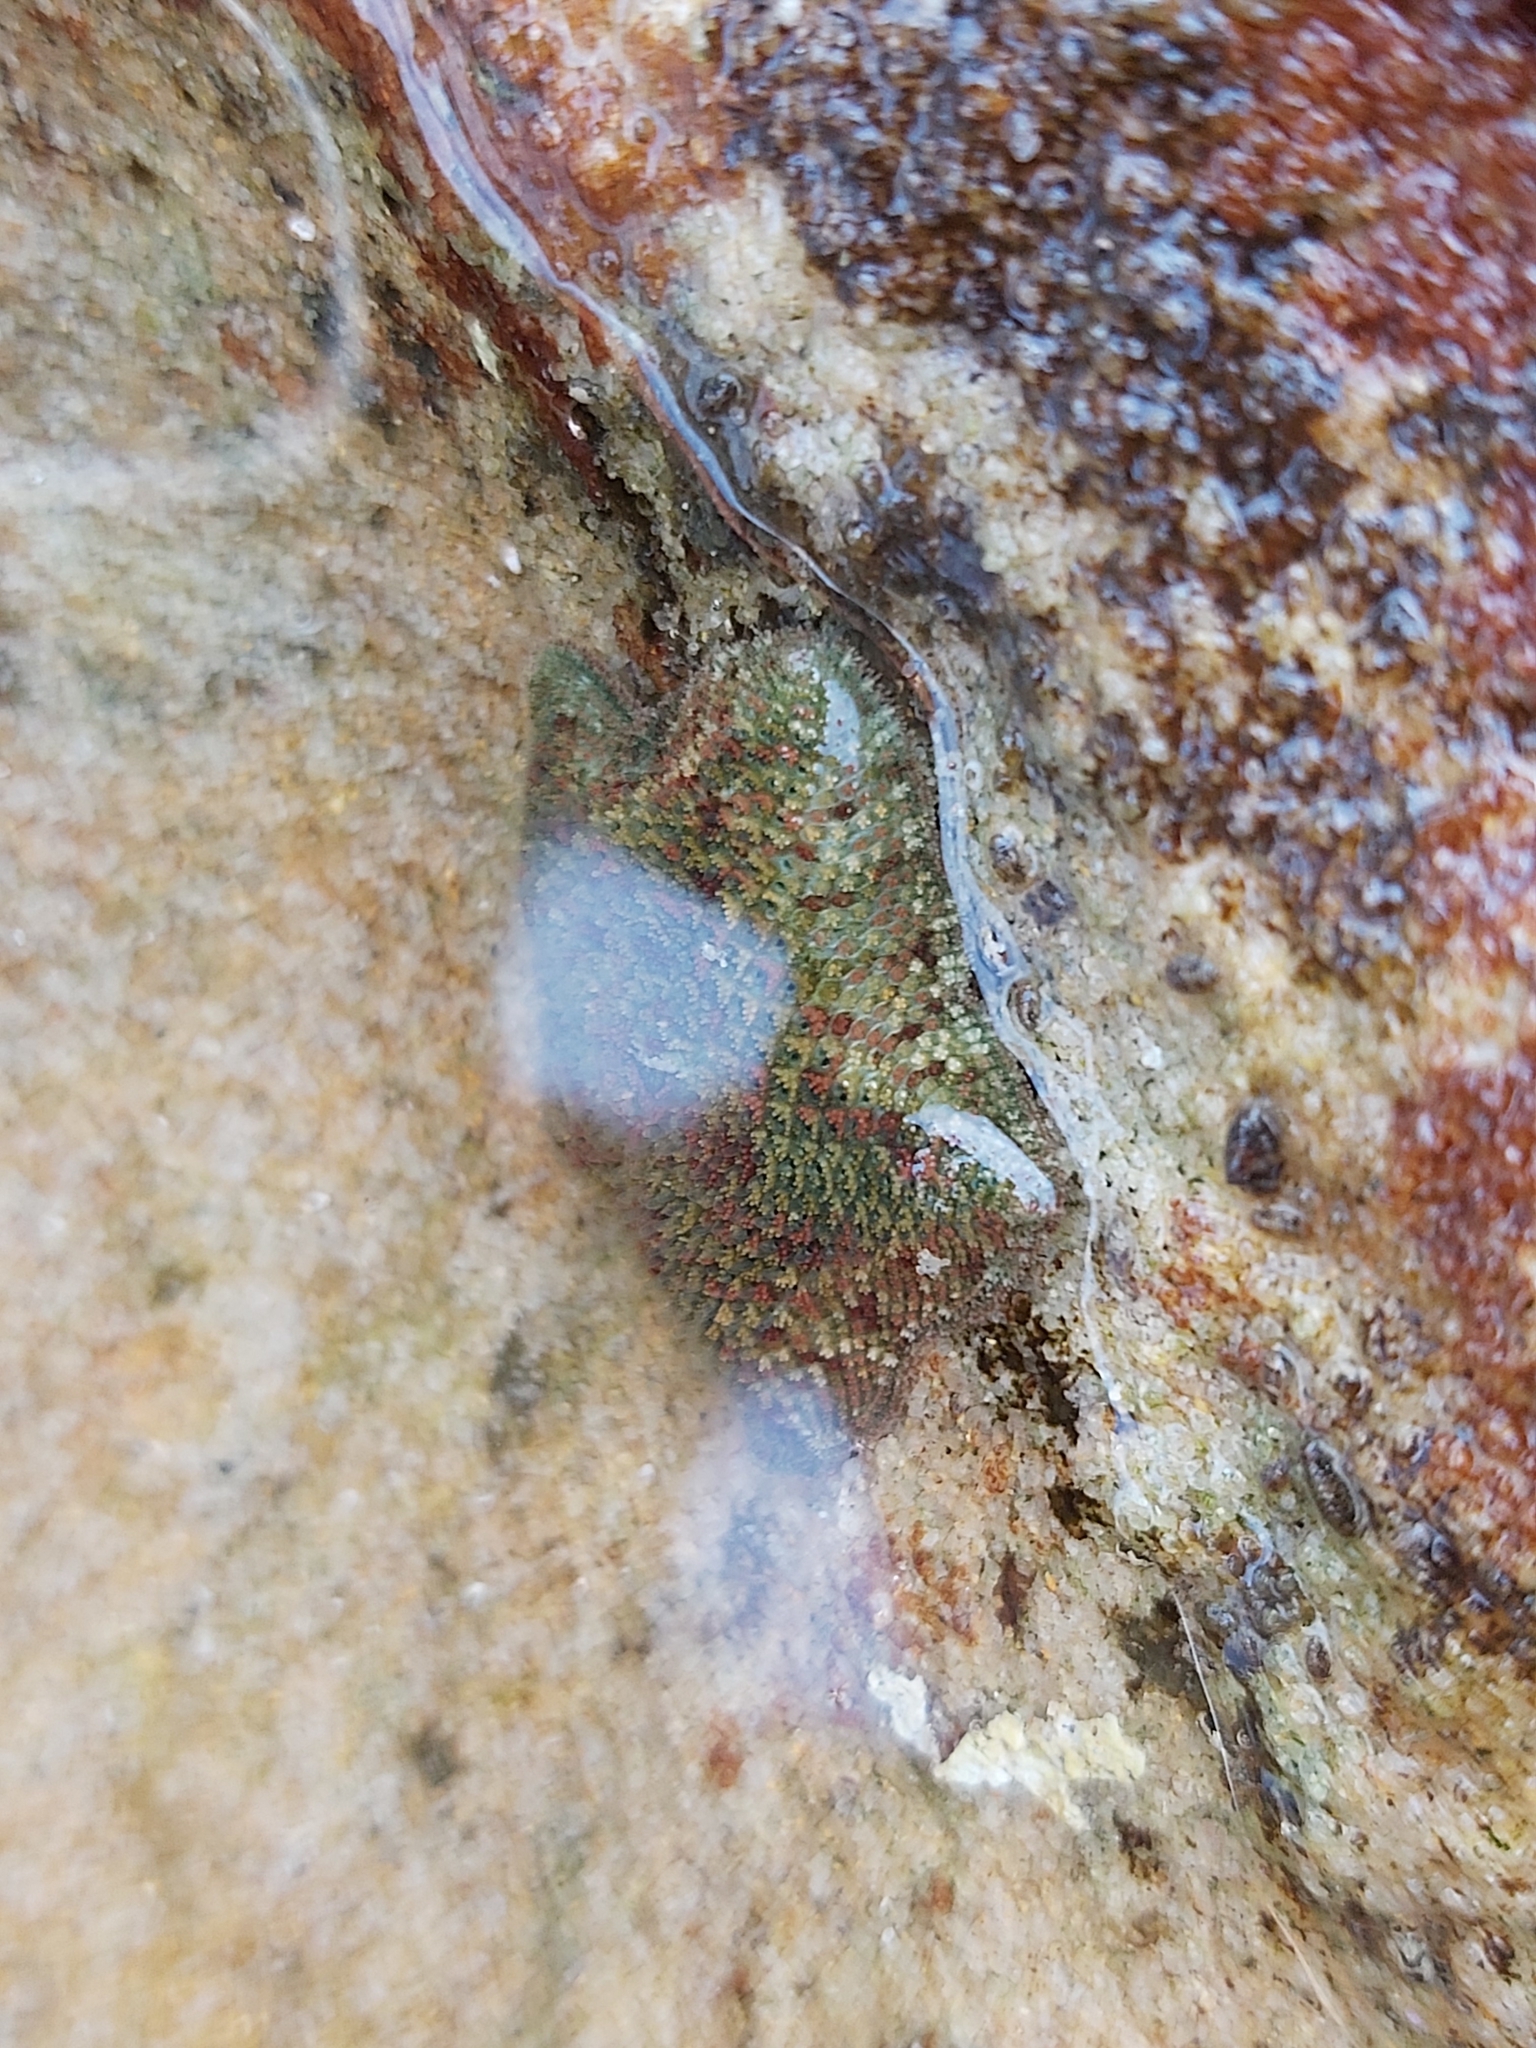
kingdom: Animalia
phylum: Echinodermata
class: Asteroidea
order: Valvatida
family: Asterinidae
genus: Parvulastra
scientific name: Parvulastra exigua
